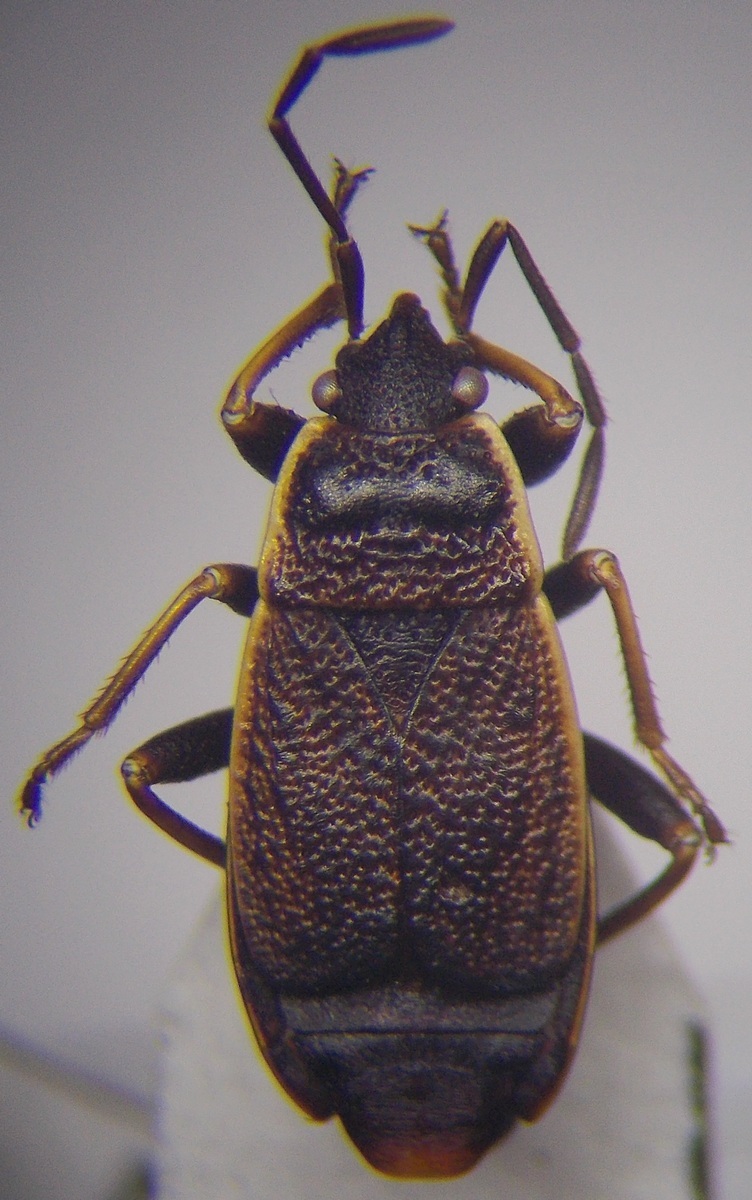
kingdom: Animalia
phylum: Arthropoda
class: Insecta
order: Hemiptera
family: Pyrrhocoridae
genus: Pyrrhocoris
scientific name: Pyrrhocoris marginatus
